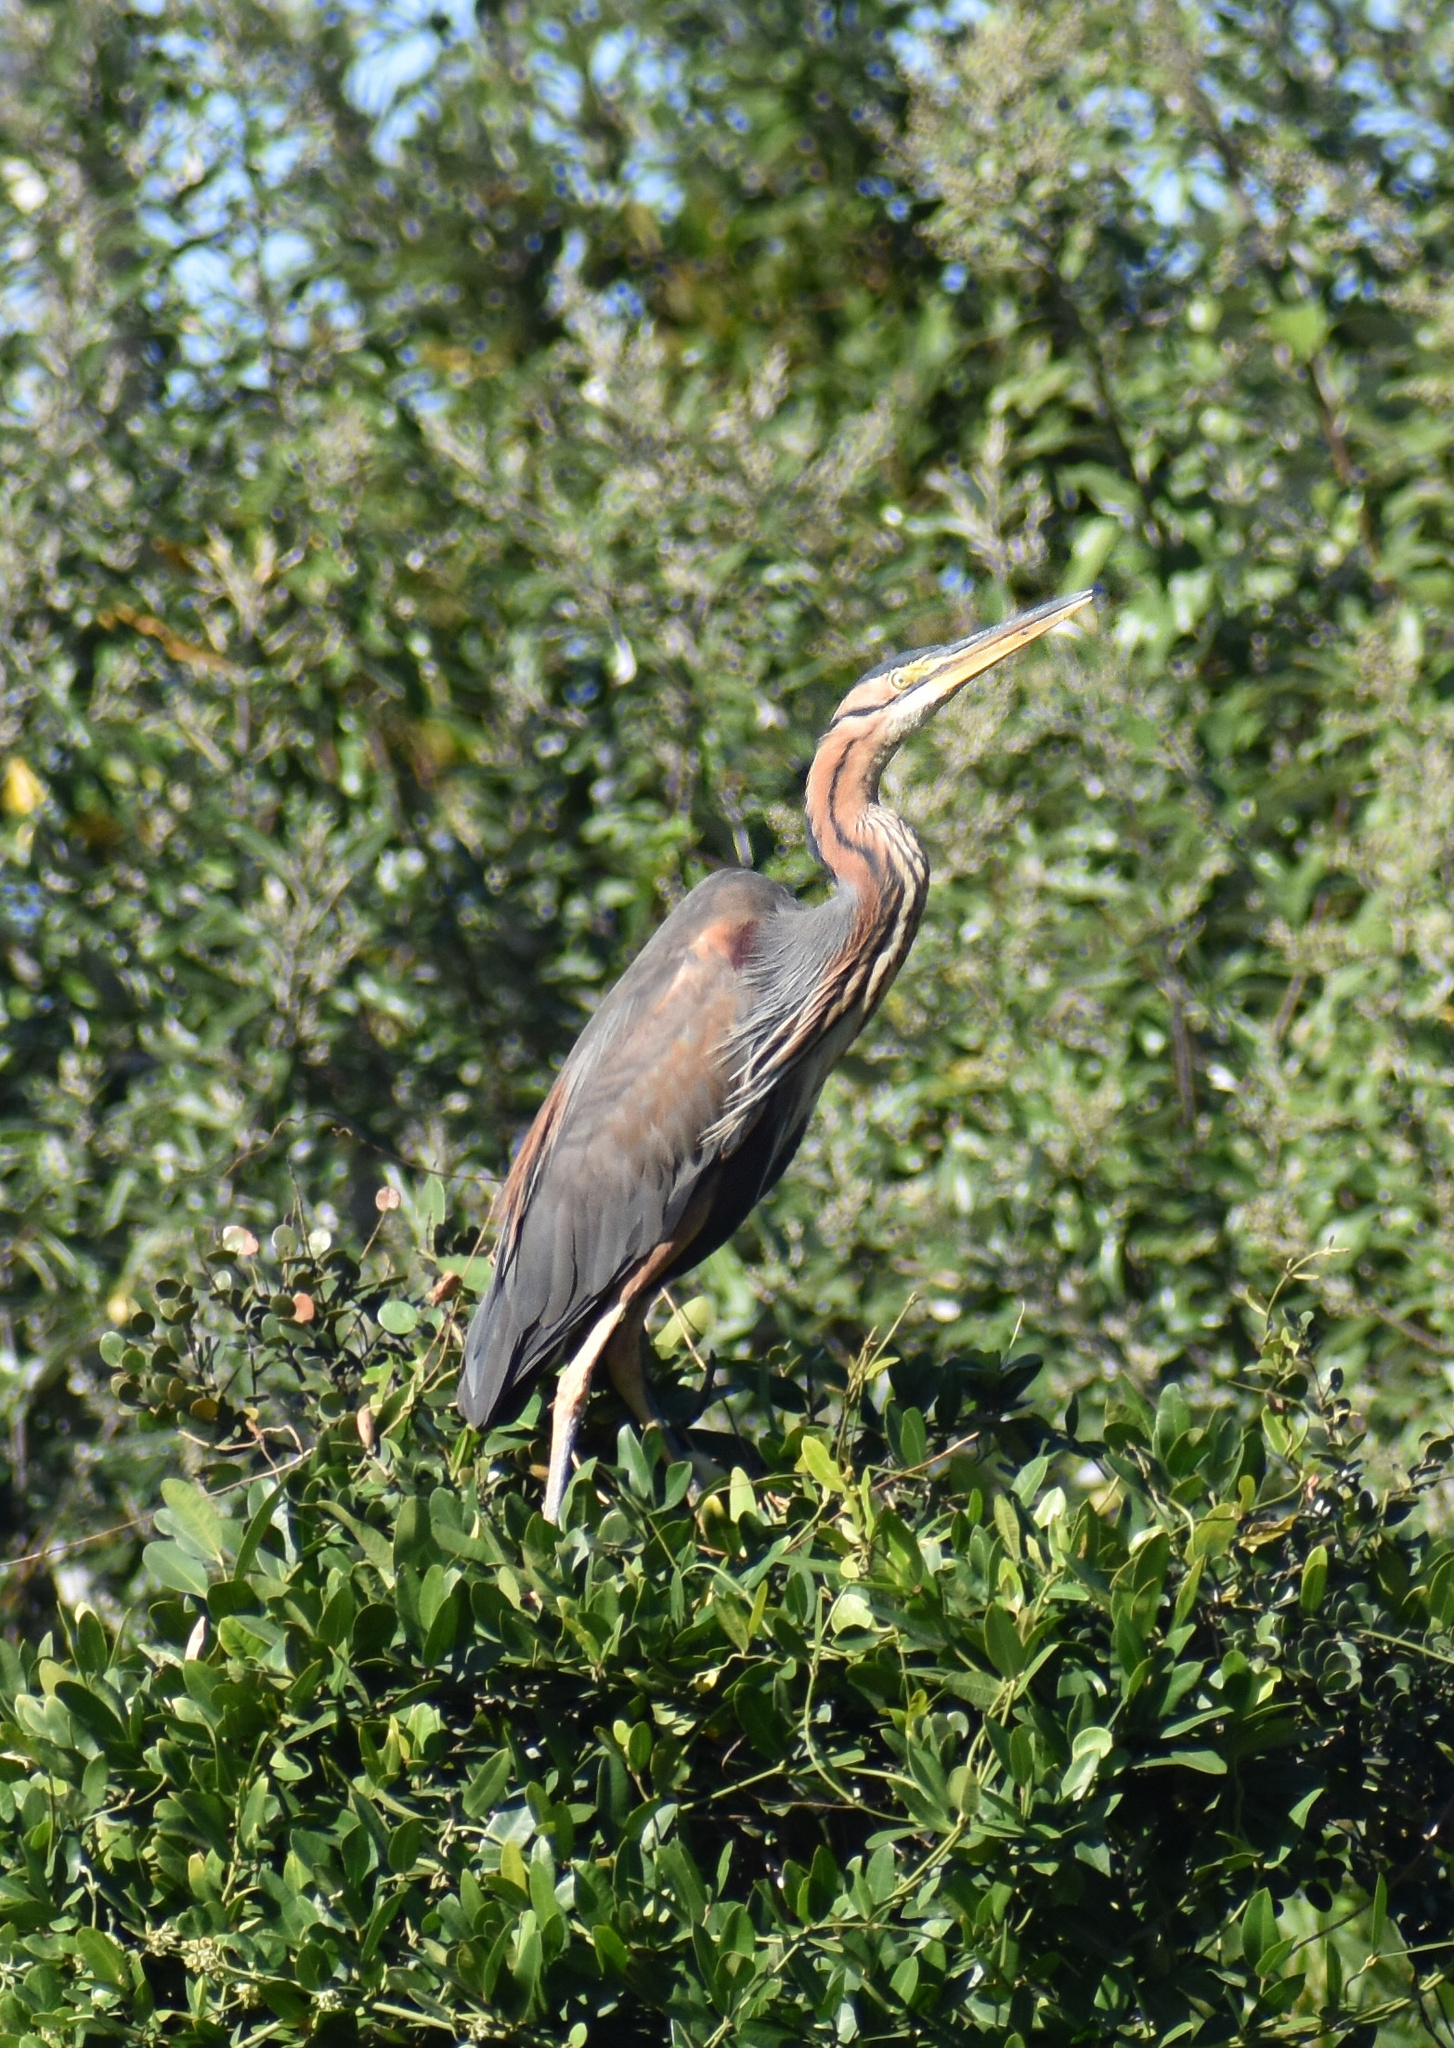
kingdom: Animalia
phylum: Chordata
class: Aves
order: Pelecaniformes
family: Ardeidae
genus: Ardea
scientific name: Ardea purpurea
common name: Purple heron
